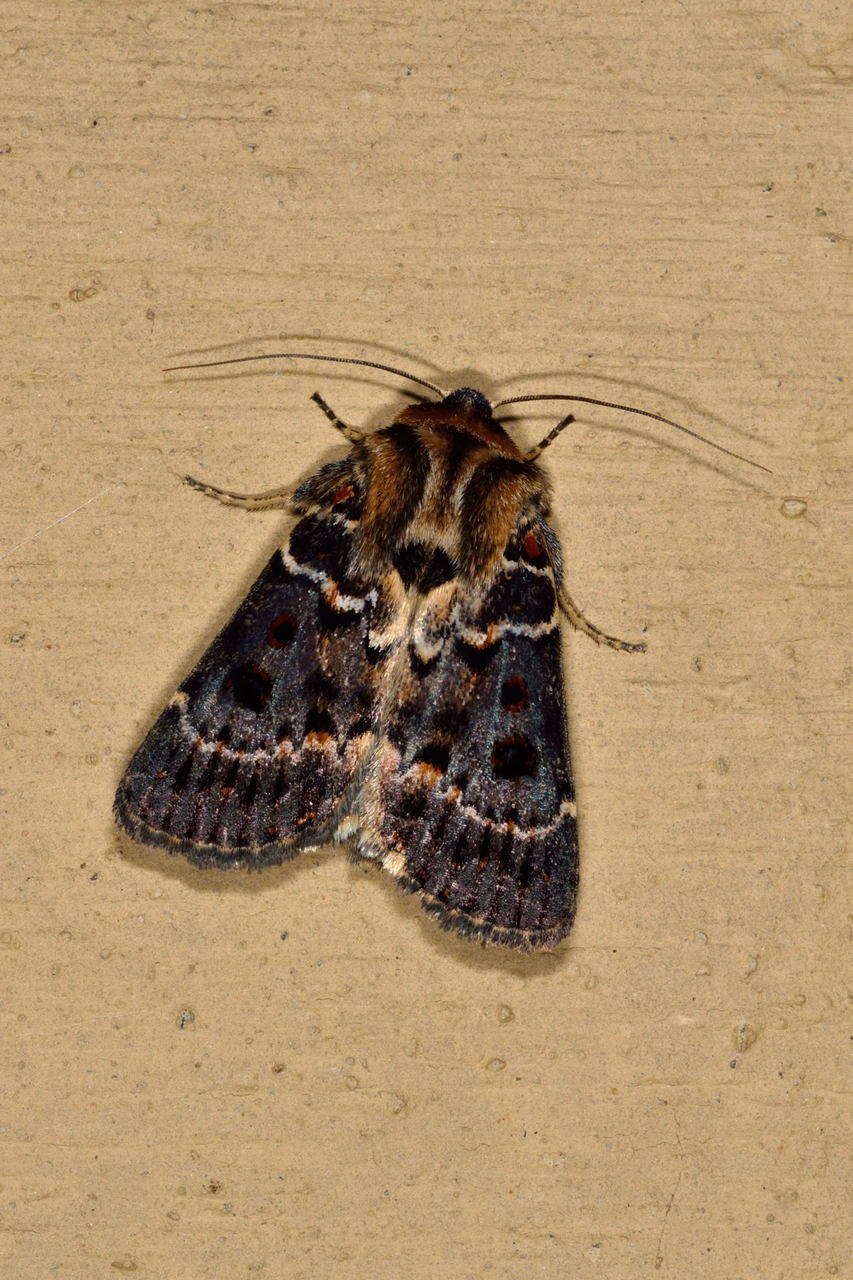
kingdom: Animalia
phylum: Arthropoda
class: Insecta
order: Lepidoptera
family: Noctuidae
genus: Proteuxoa
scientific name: Proteuxoa sanguinipuncta
